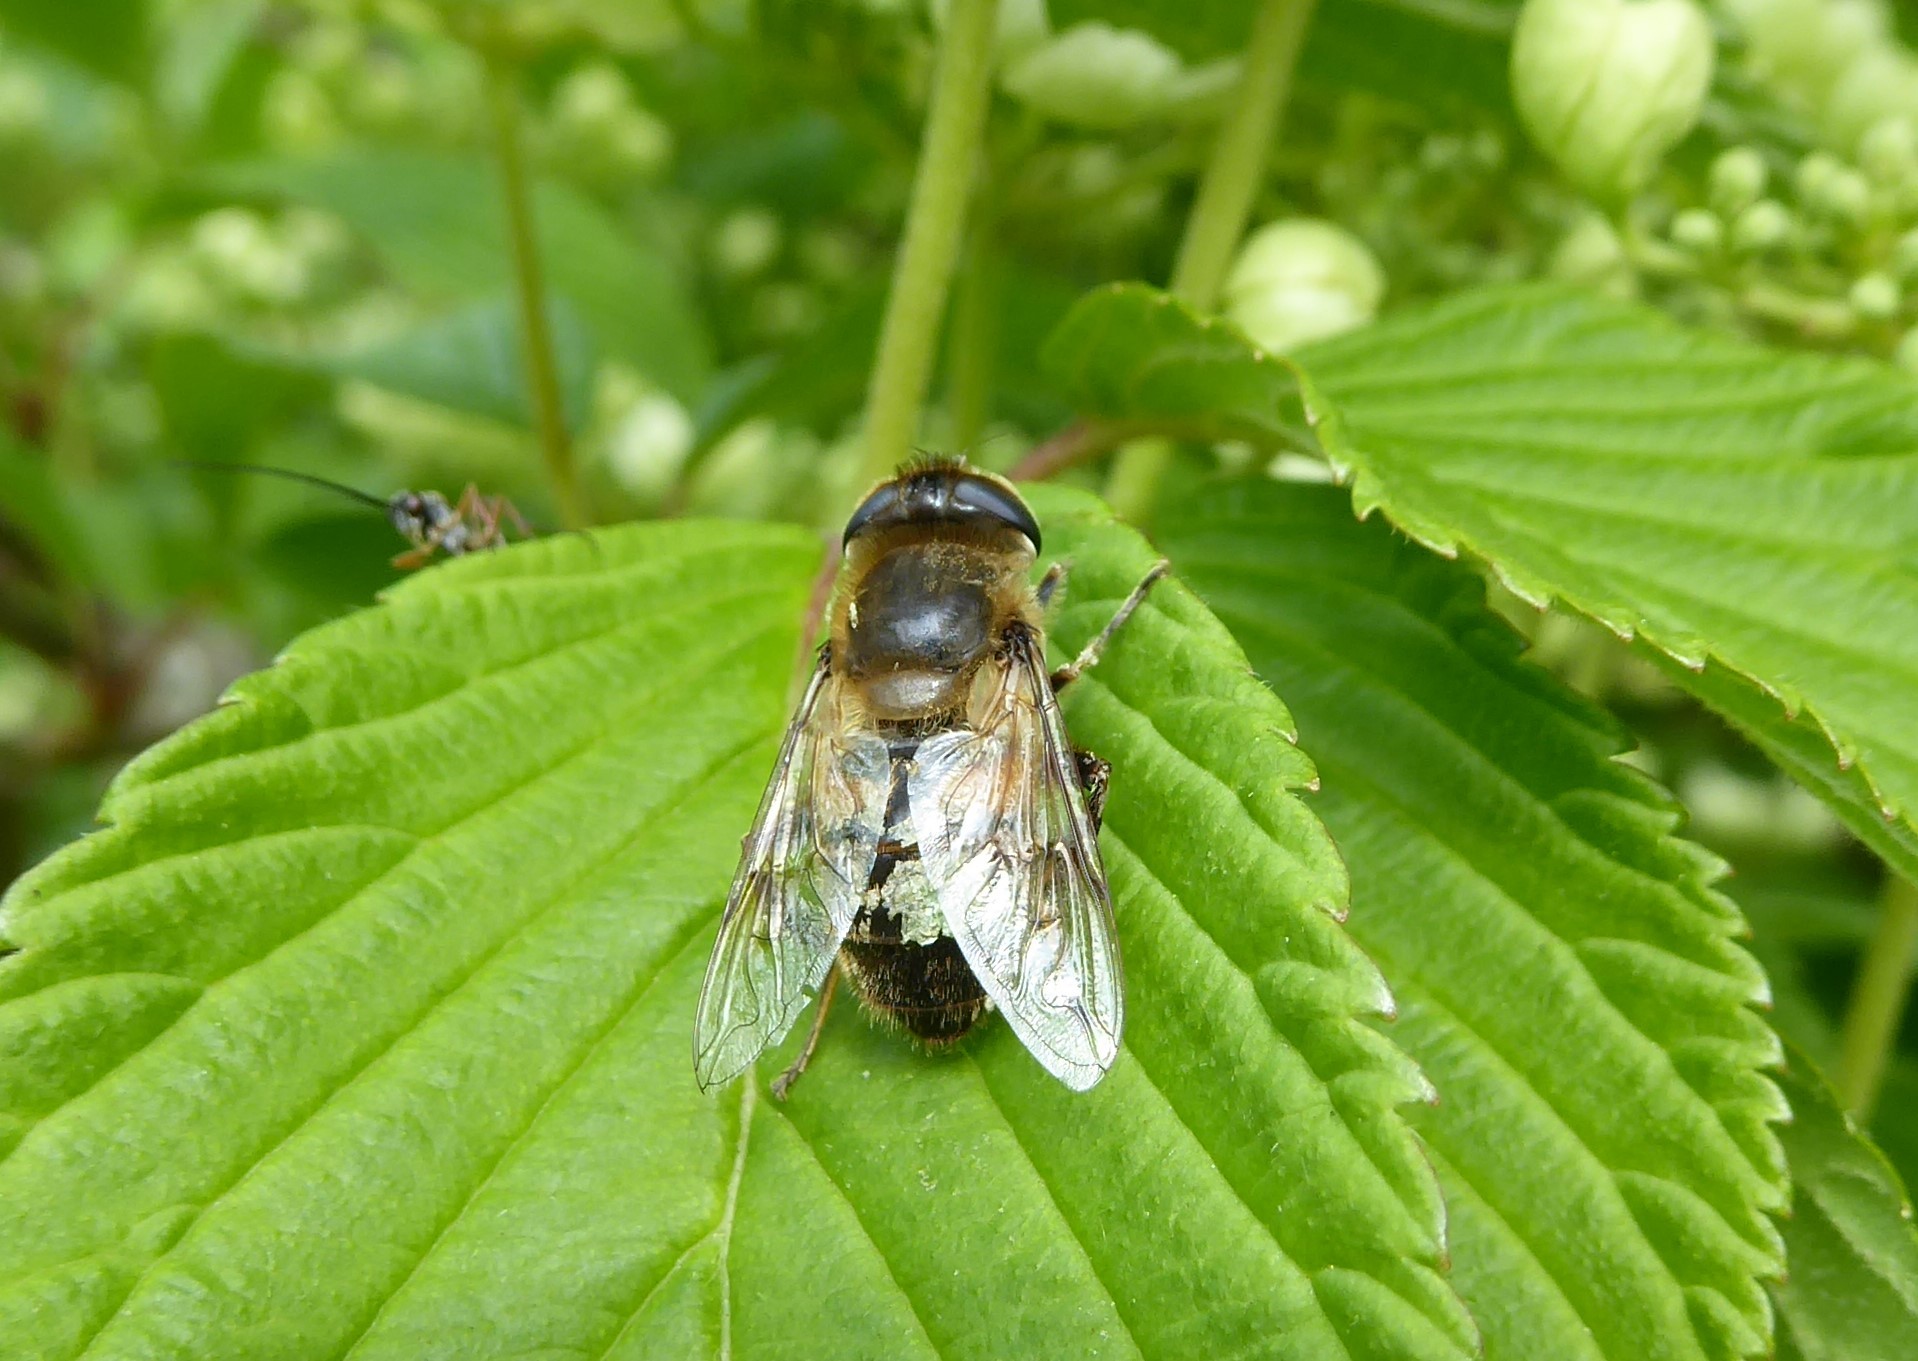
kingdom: Animalia
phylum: Arthropoda
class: Insecta
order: Diptera
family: Syrphidae
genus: Eristalis
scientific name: Eristalis tenax
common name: Drone fly
